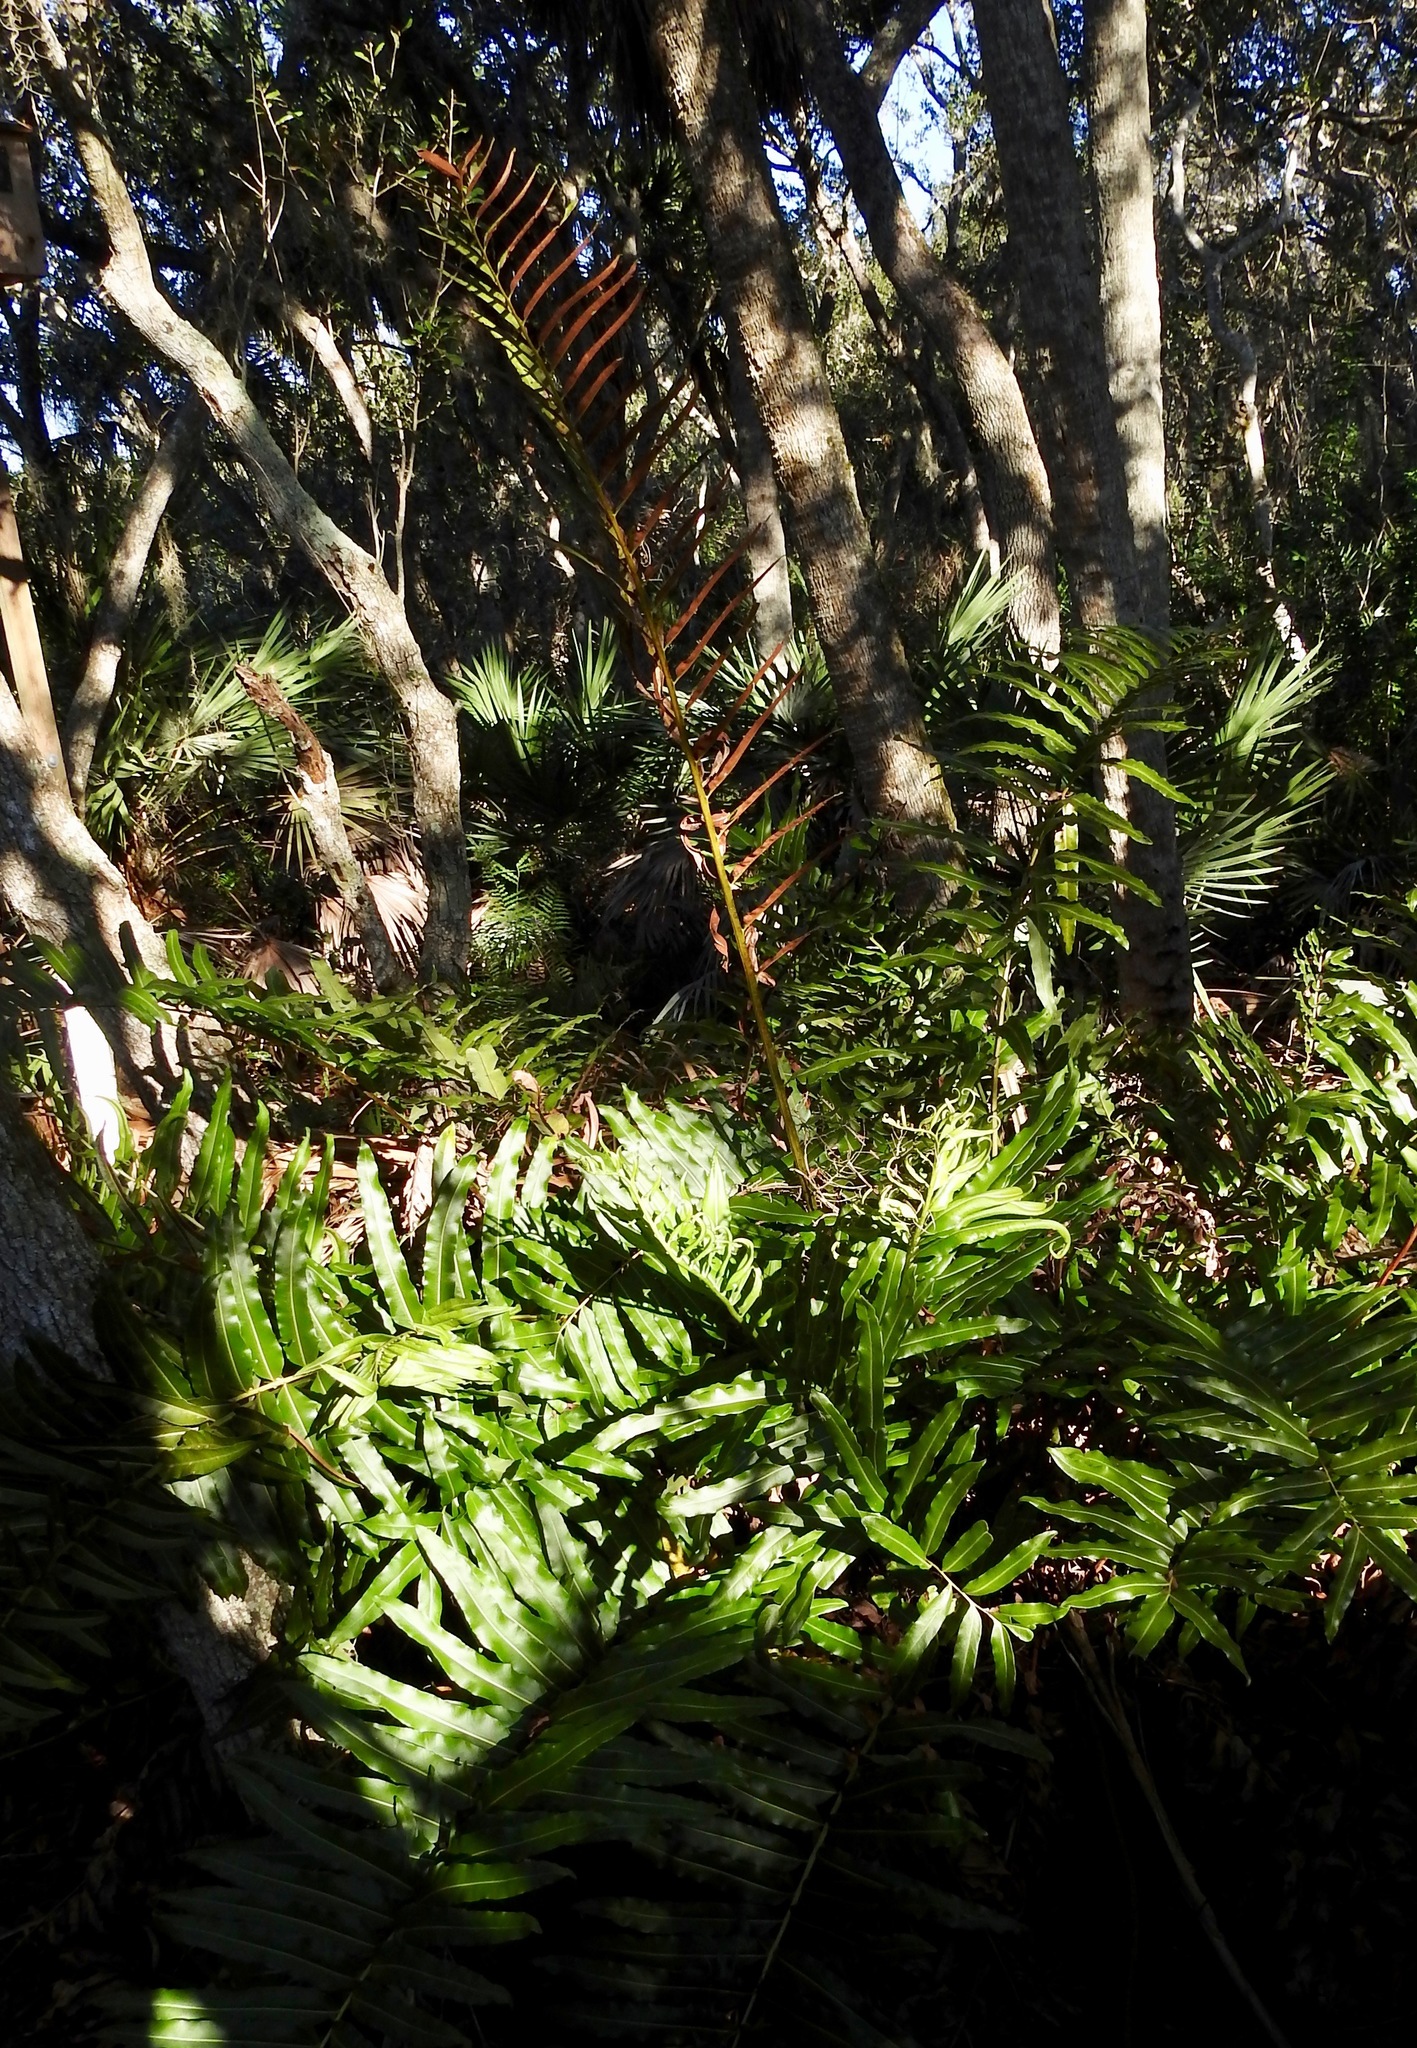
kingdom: Plantae
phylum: Tracheophyta
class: Polypodiopsida
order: Polypodiales
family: Pteridaceae
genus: Acrostichum
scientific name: Acrostichum danaeifolium
